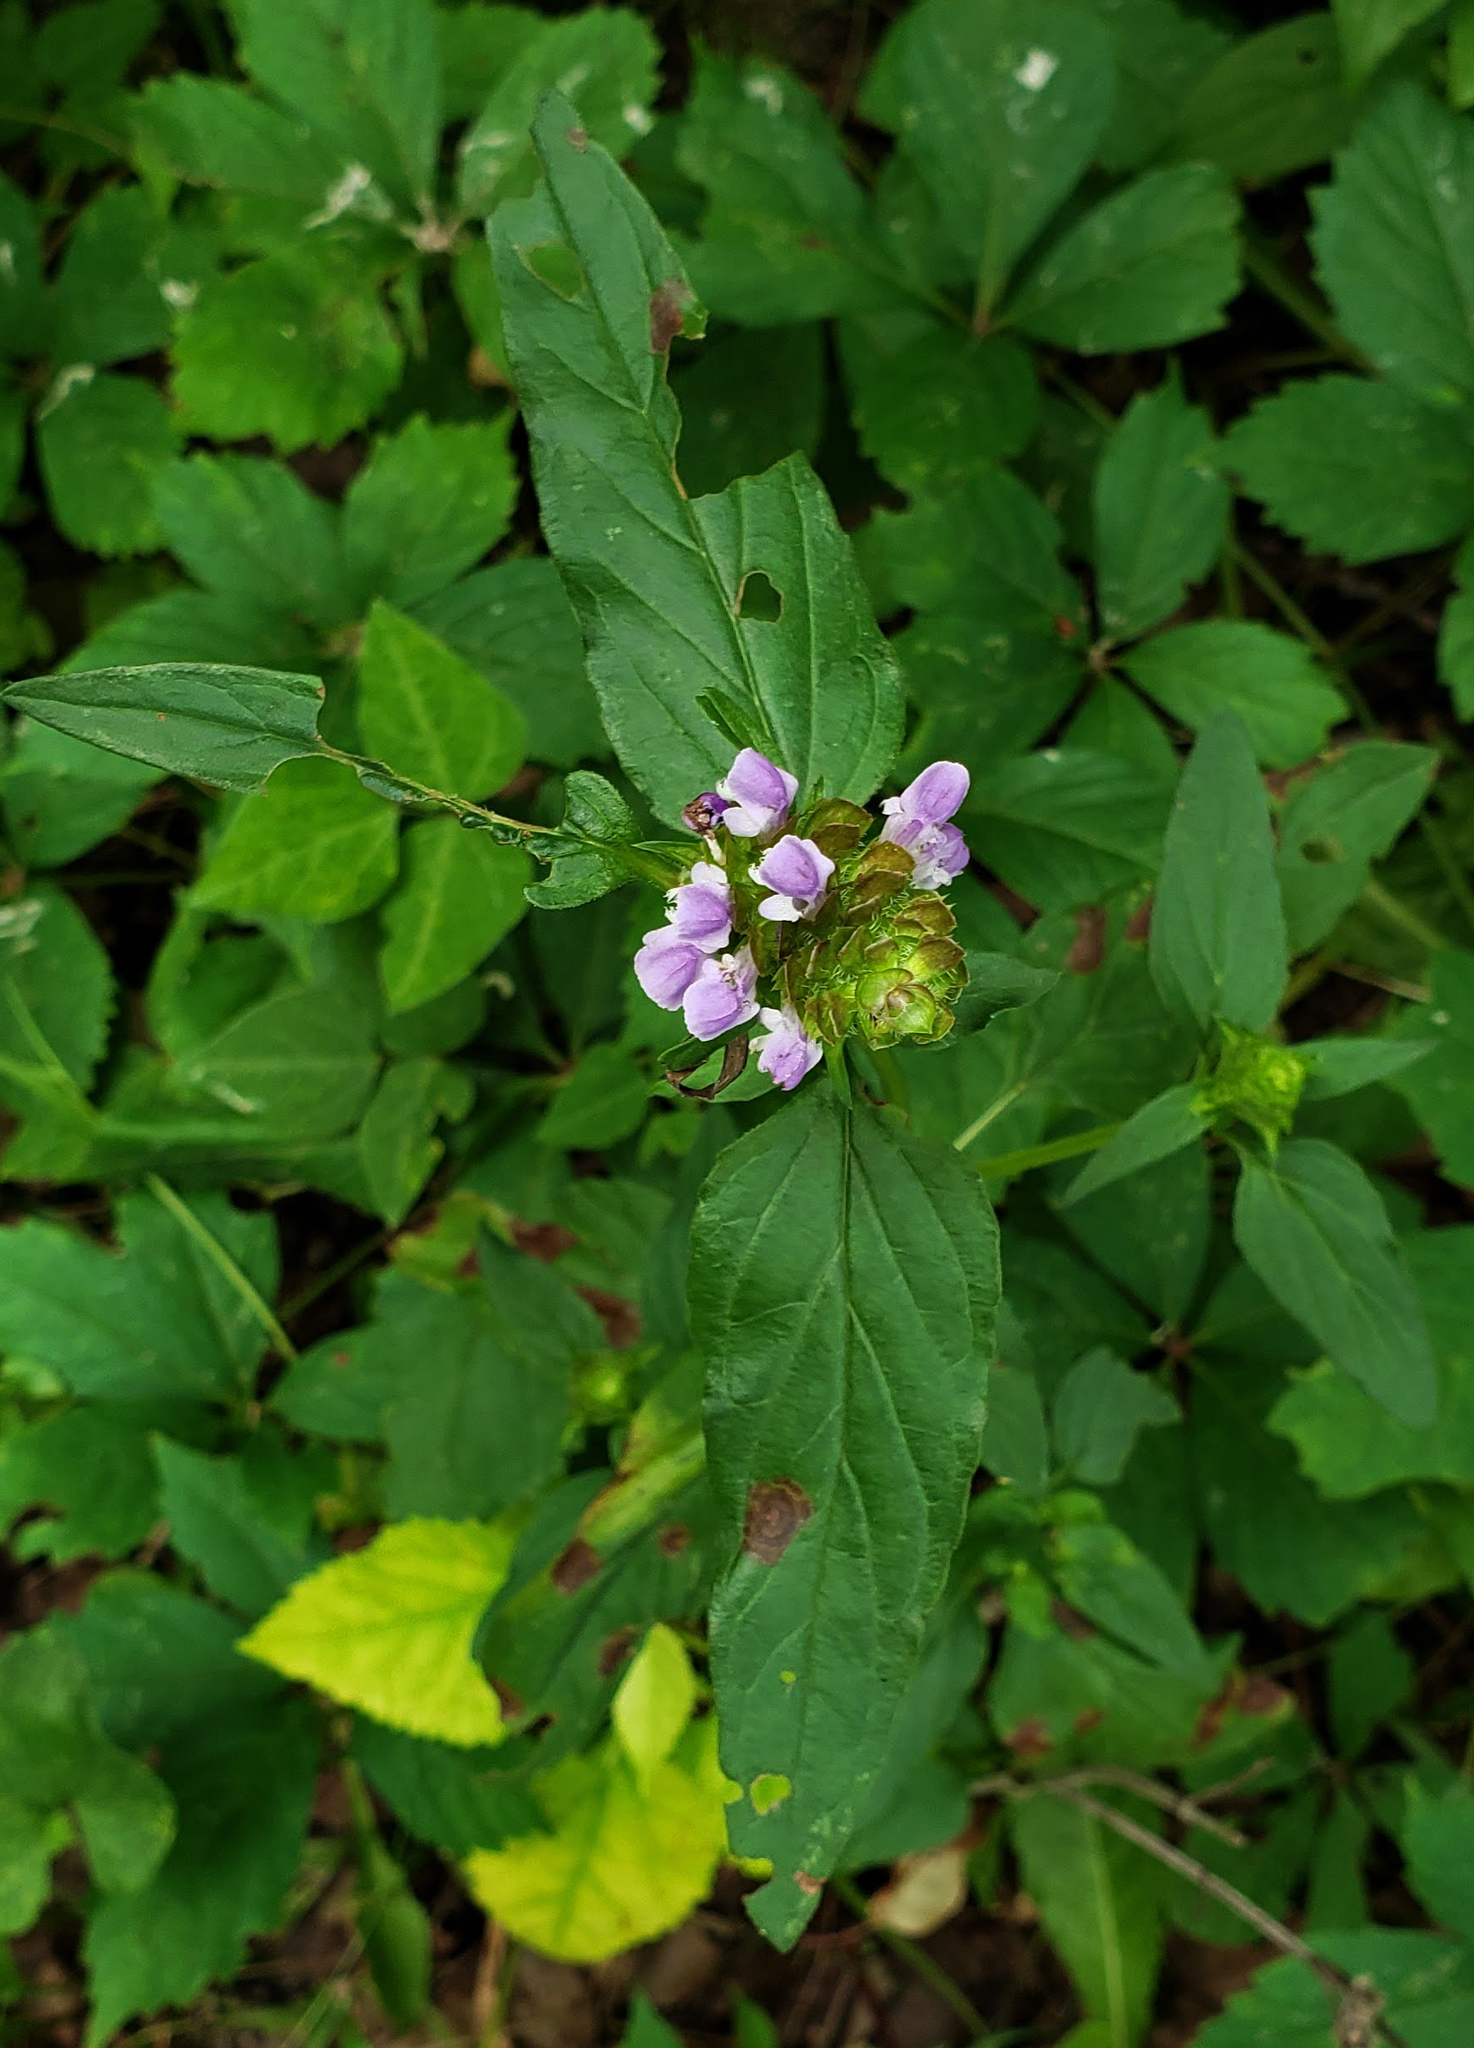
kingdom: Plantae
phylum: Tracheophyta
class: Magnoliopsida
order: Lamiales
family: Lamiaceae
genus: Prunella
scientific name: Prunella vulgaris
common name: Heal-all
